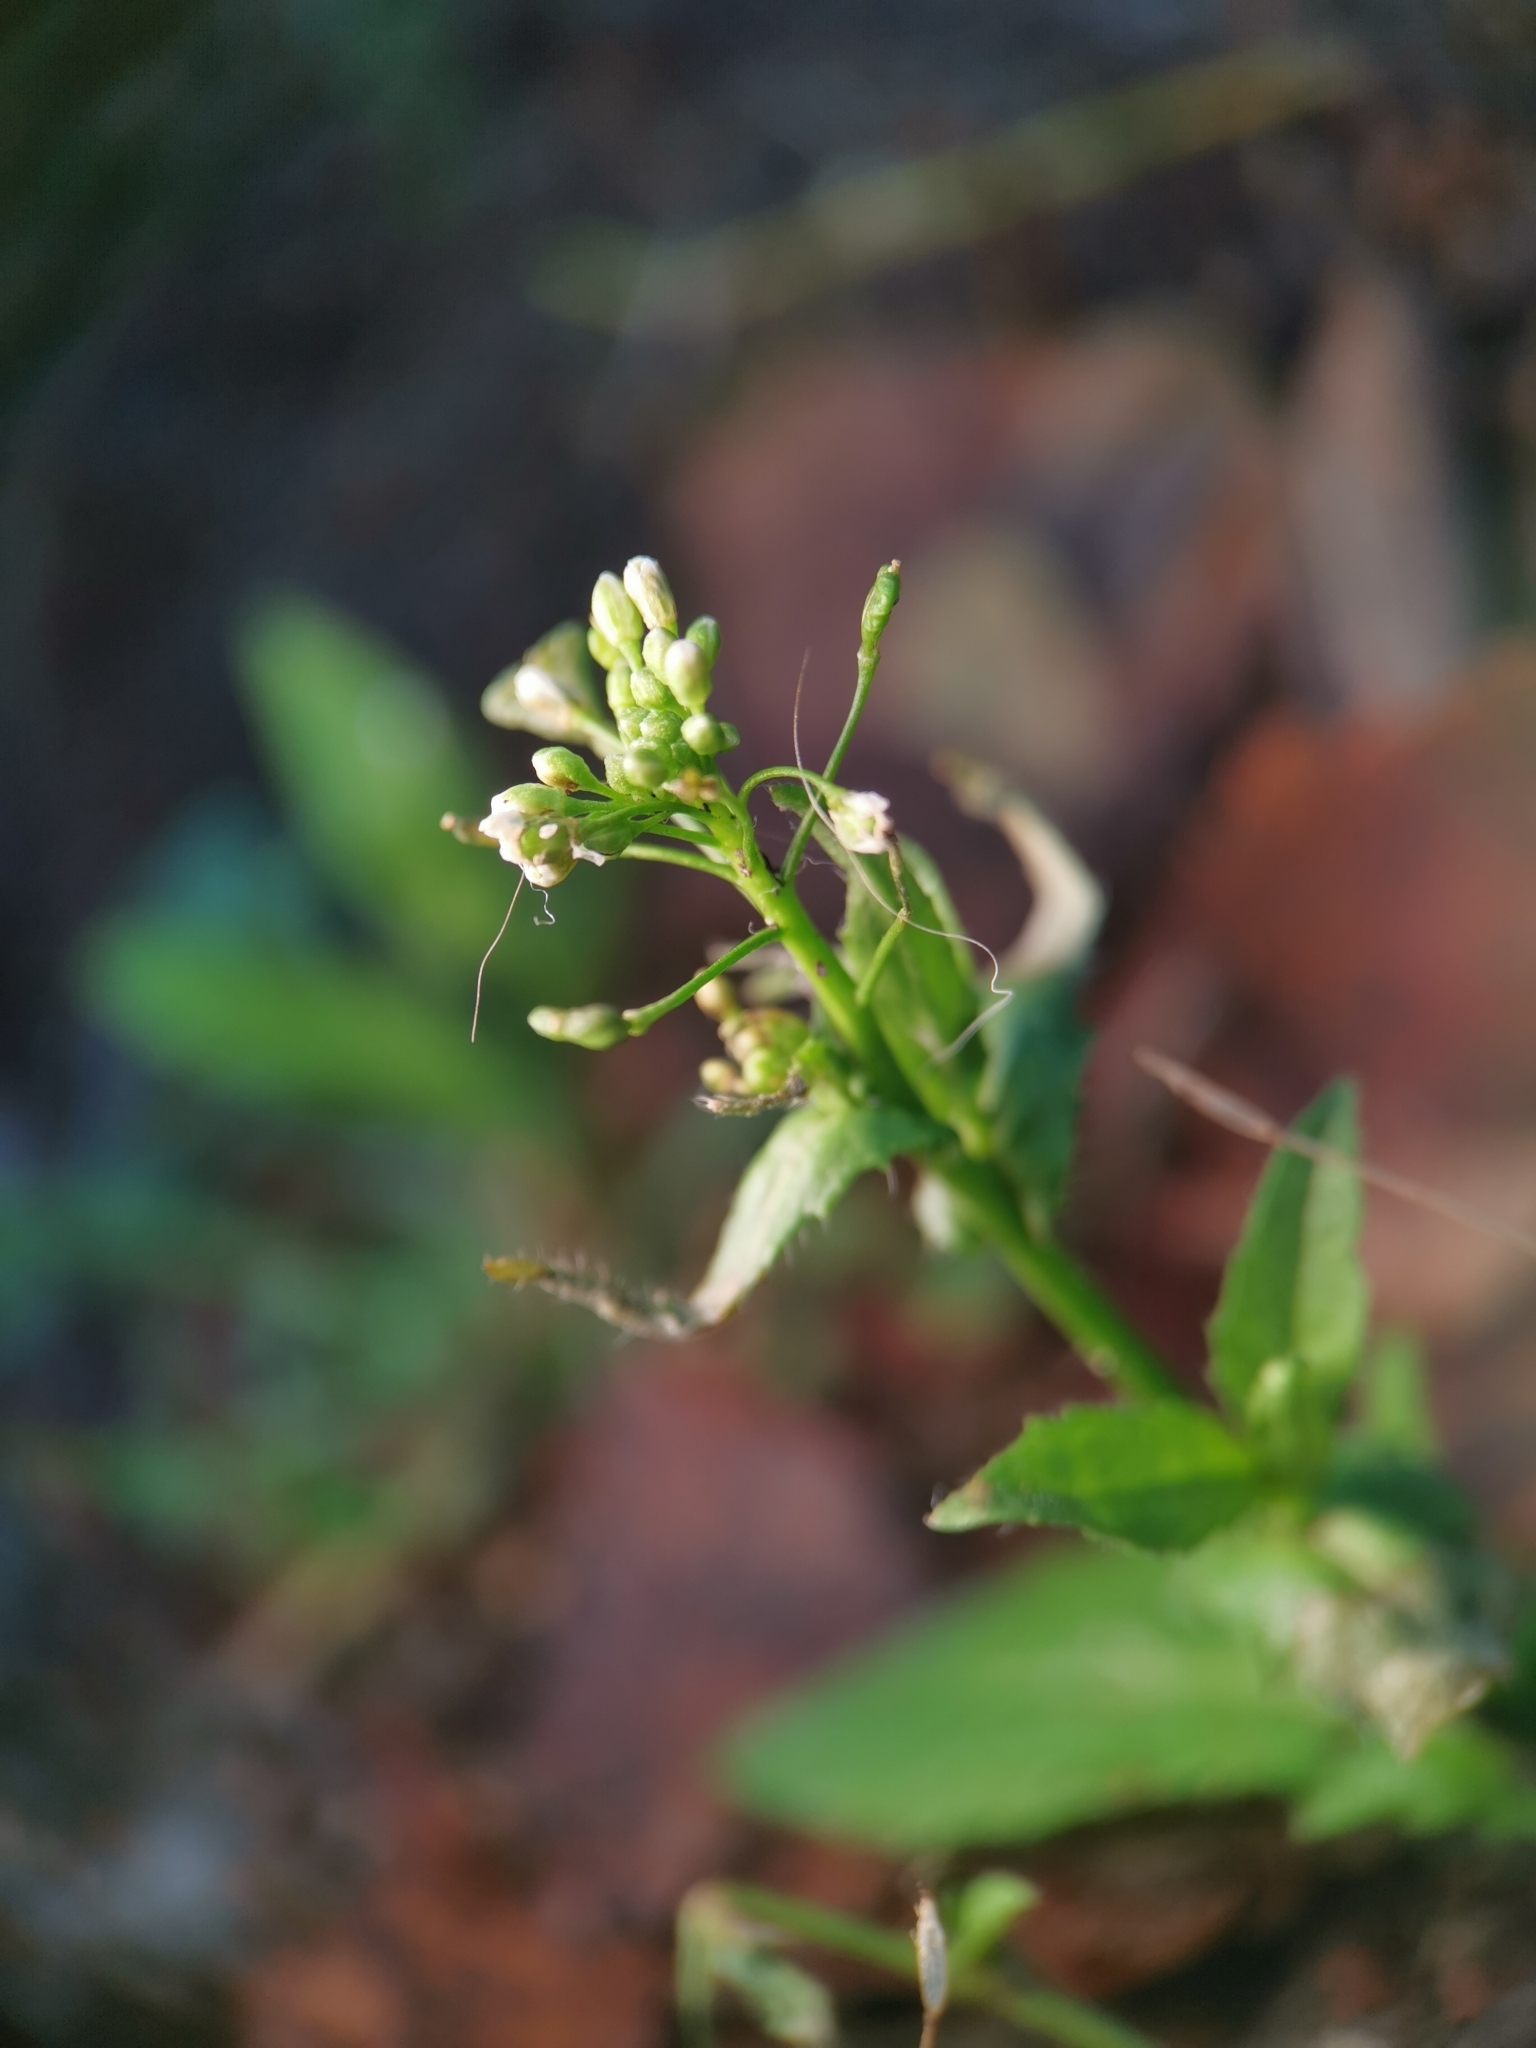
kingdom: Plantae
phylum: Tracheophyta
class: Magnoliopsida
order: Brassicales
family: Brassicaceae
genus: Capsella
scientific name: Capsella bursa-pastoris
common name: Shepherd's purse
